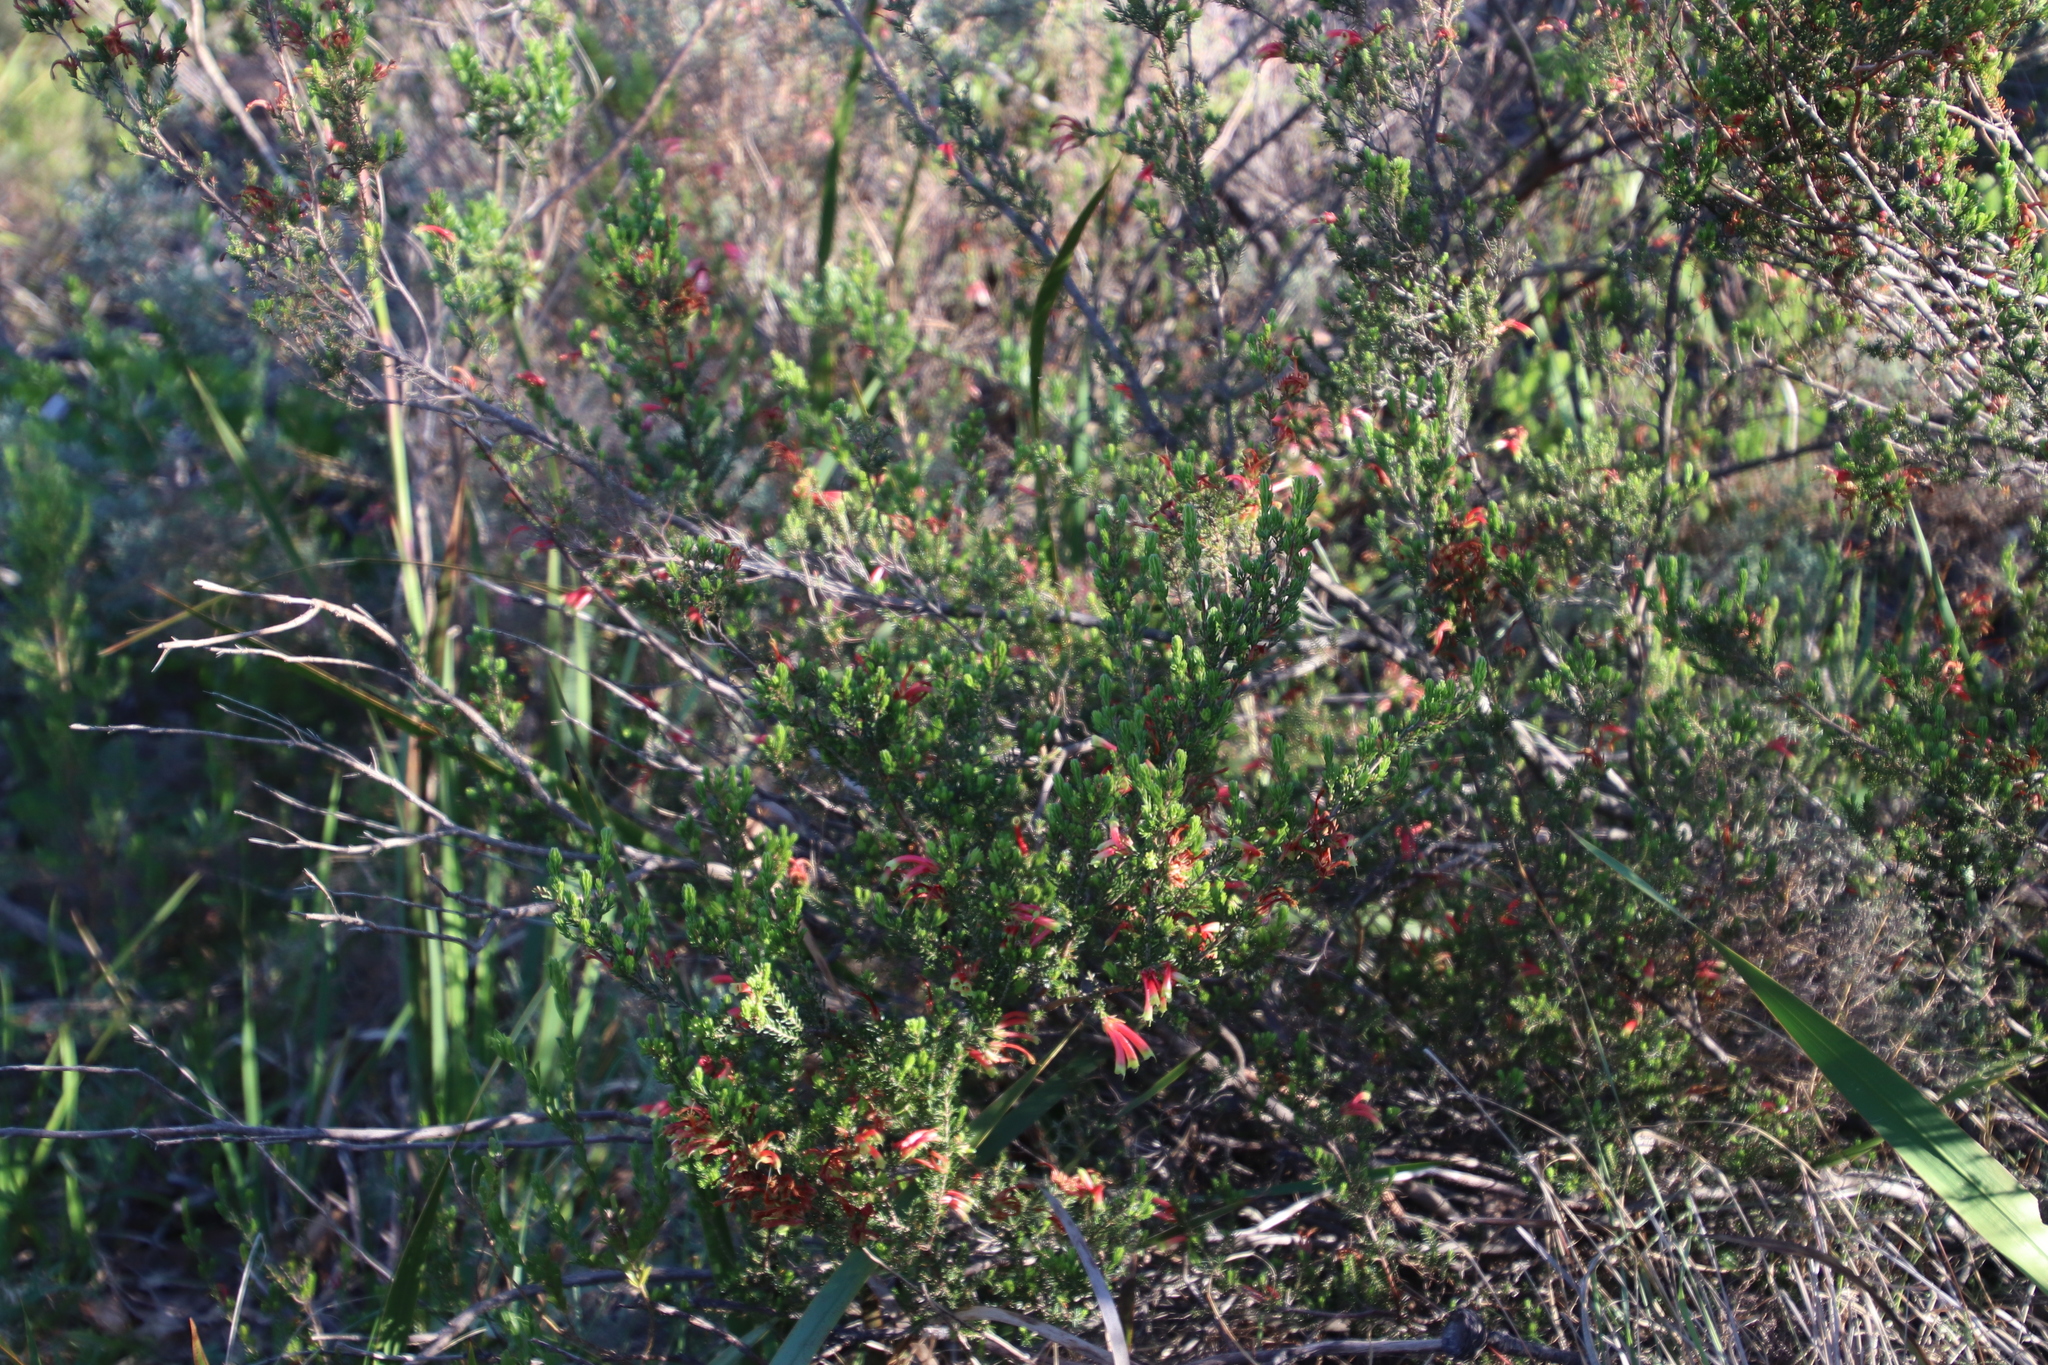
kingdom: Plantae
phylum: Tracheophyta
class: Magnoliopsida
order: Ericales
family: Ericaceae
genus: Erica
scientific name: Erica discolor
